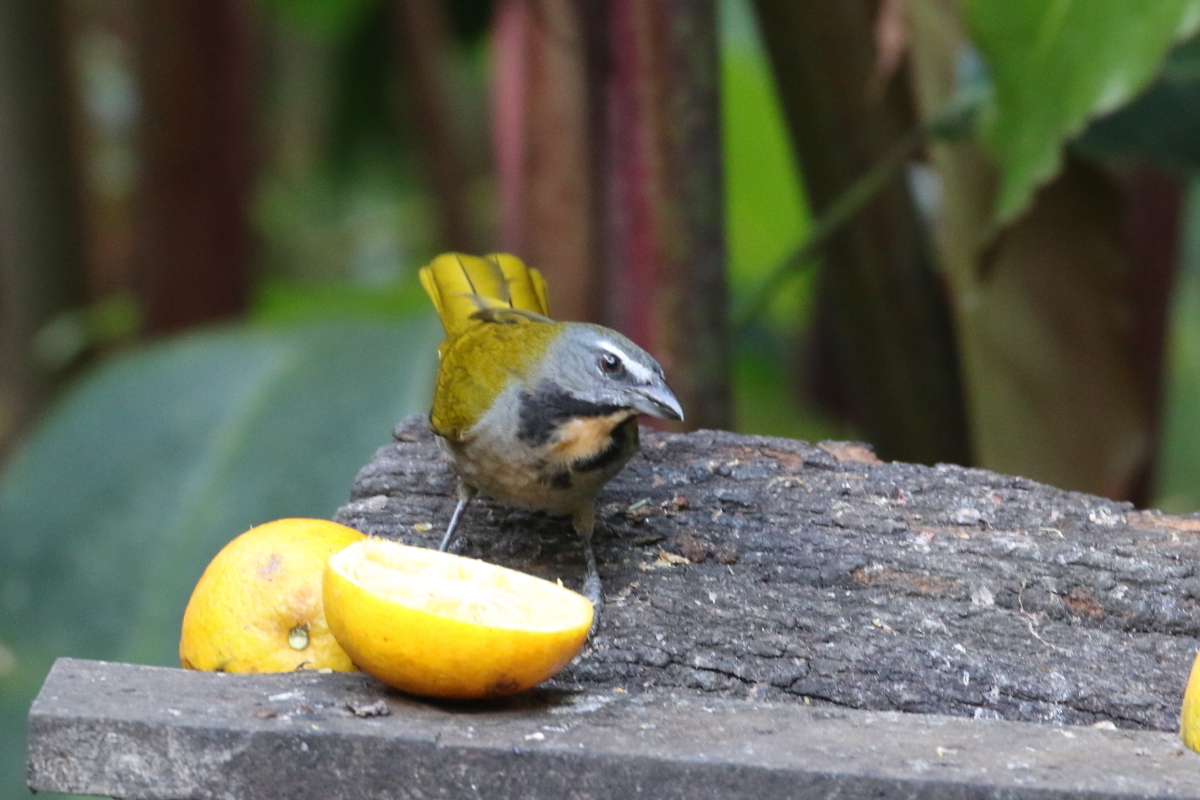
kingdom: Animalia
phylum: Chordata
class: Aves
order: Passeriformes
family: Thraupidae
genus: Saltator
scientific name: Saltator maximus
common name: Buff-throated saltator
